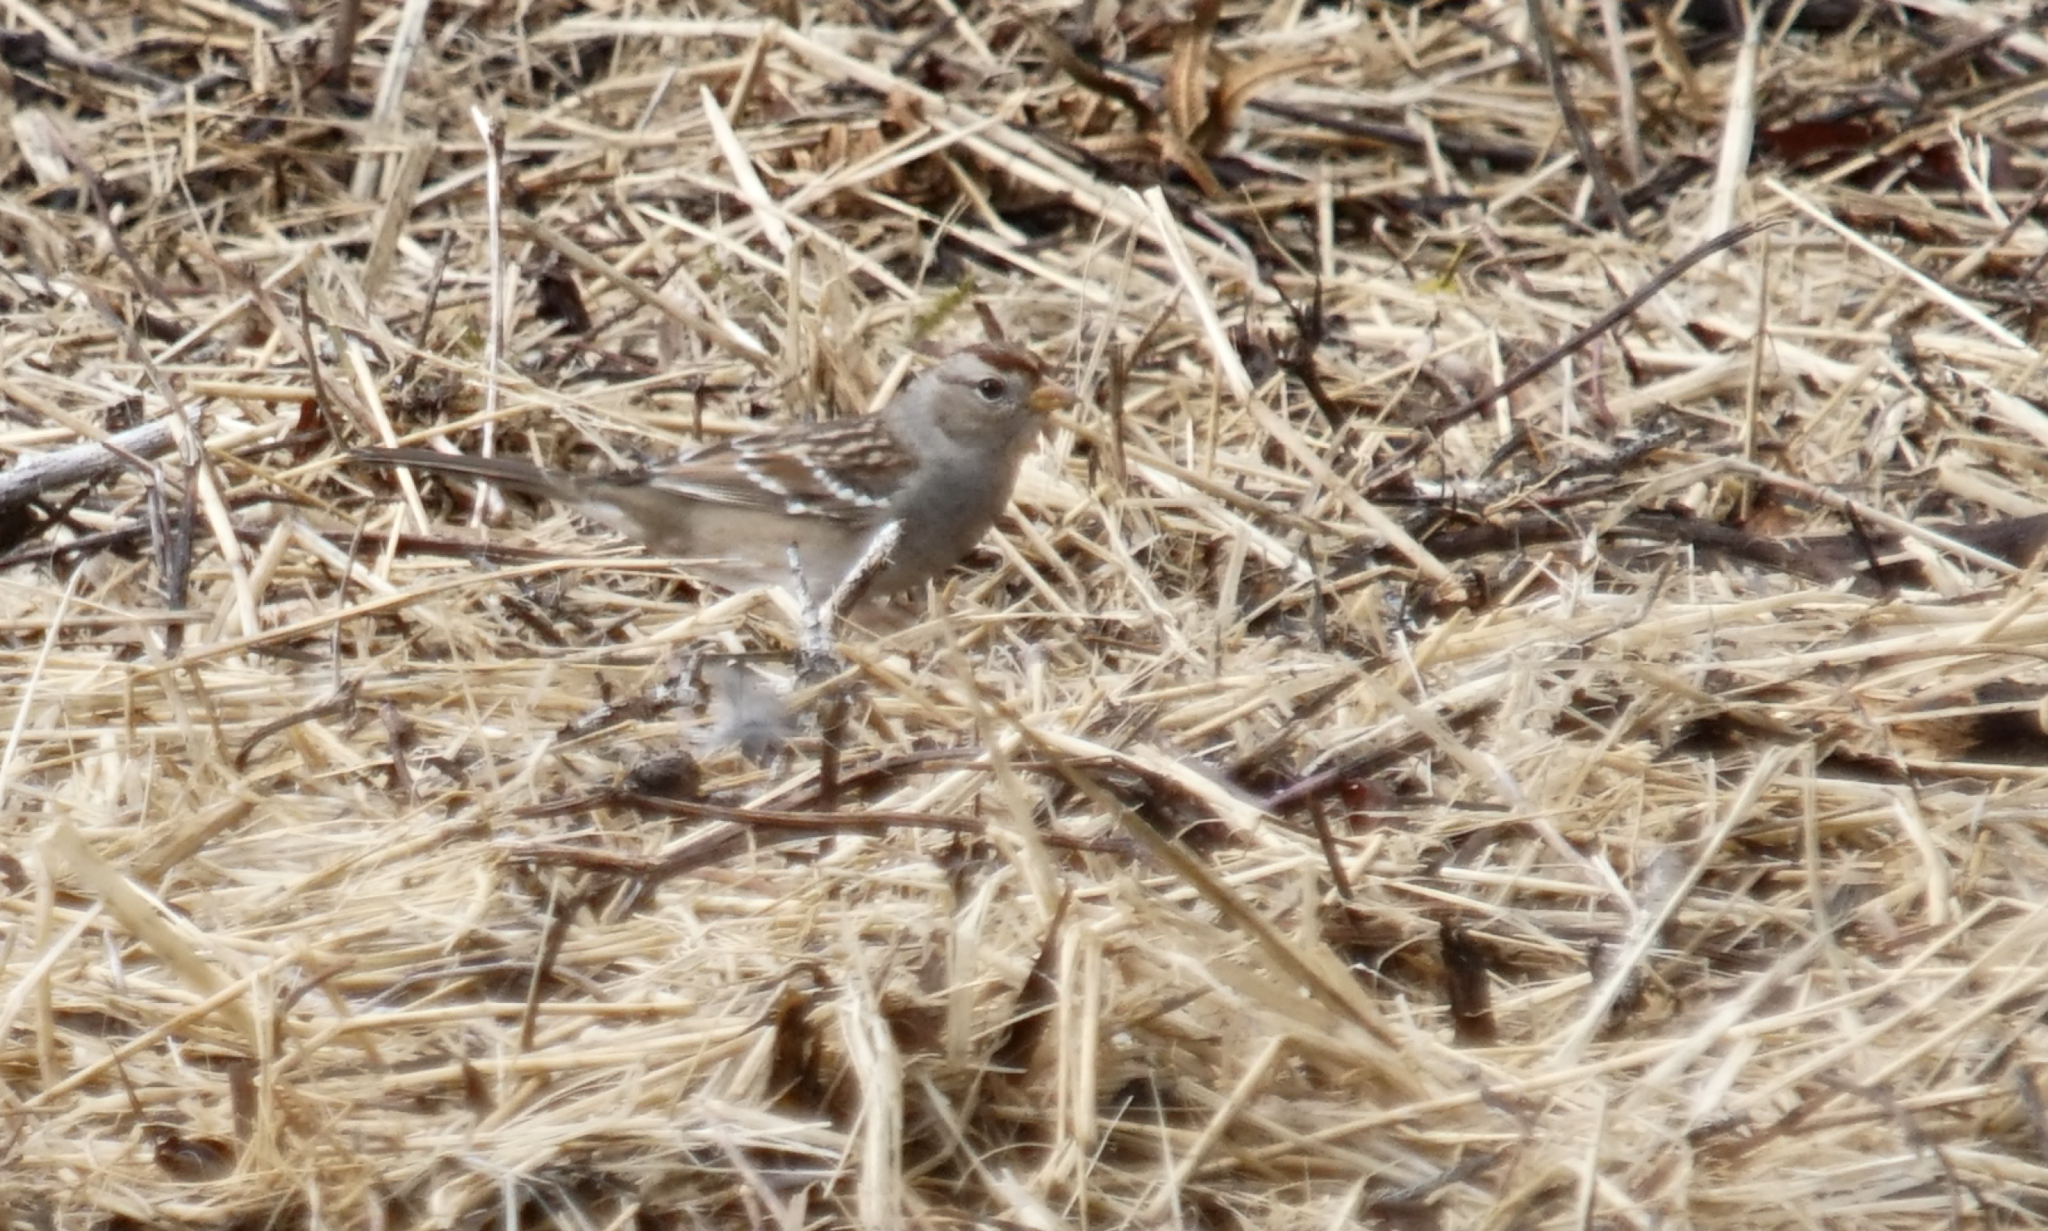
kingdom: Animalia
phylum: Chordata
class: Aves
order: Passeriformes
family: Passerellidae
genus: Zonotrichia
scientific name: Zonotrichia leucophrys
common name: White-crowned sparrow
